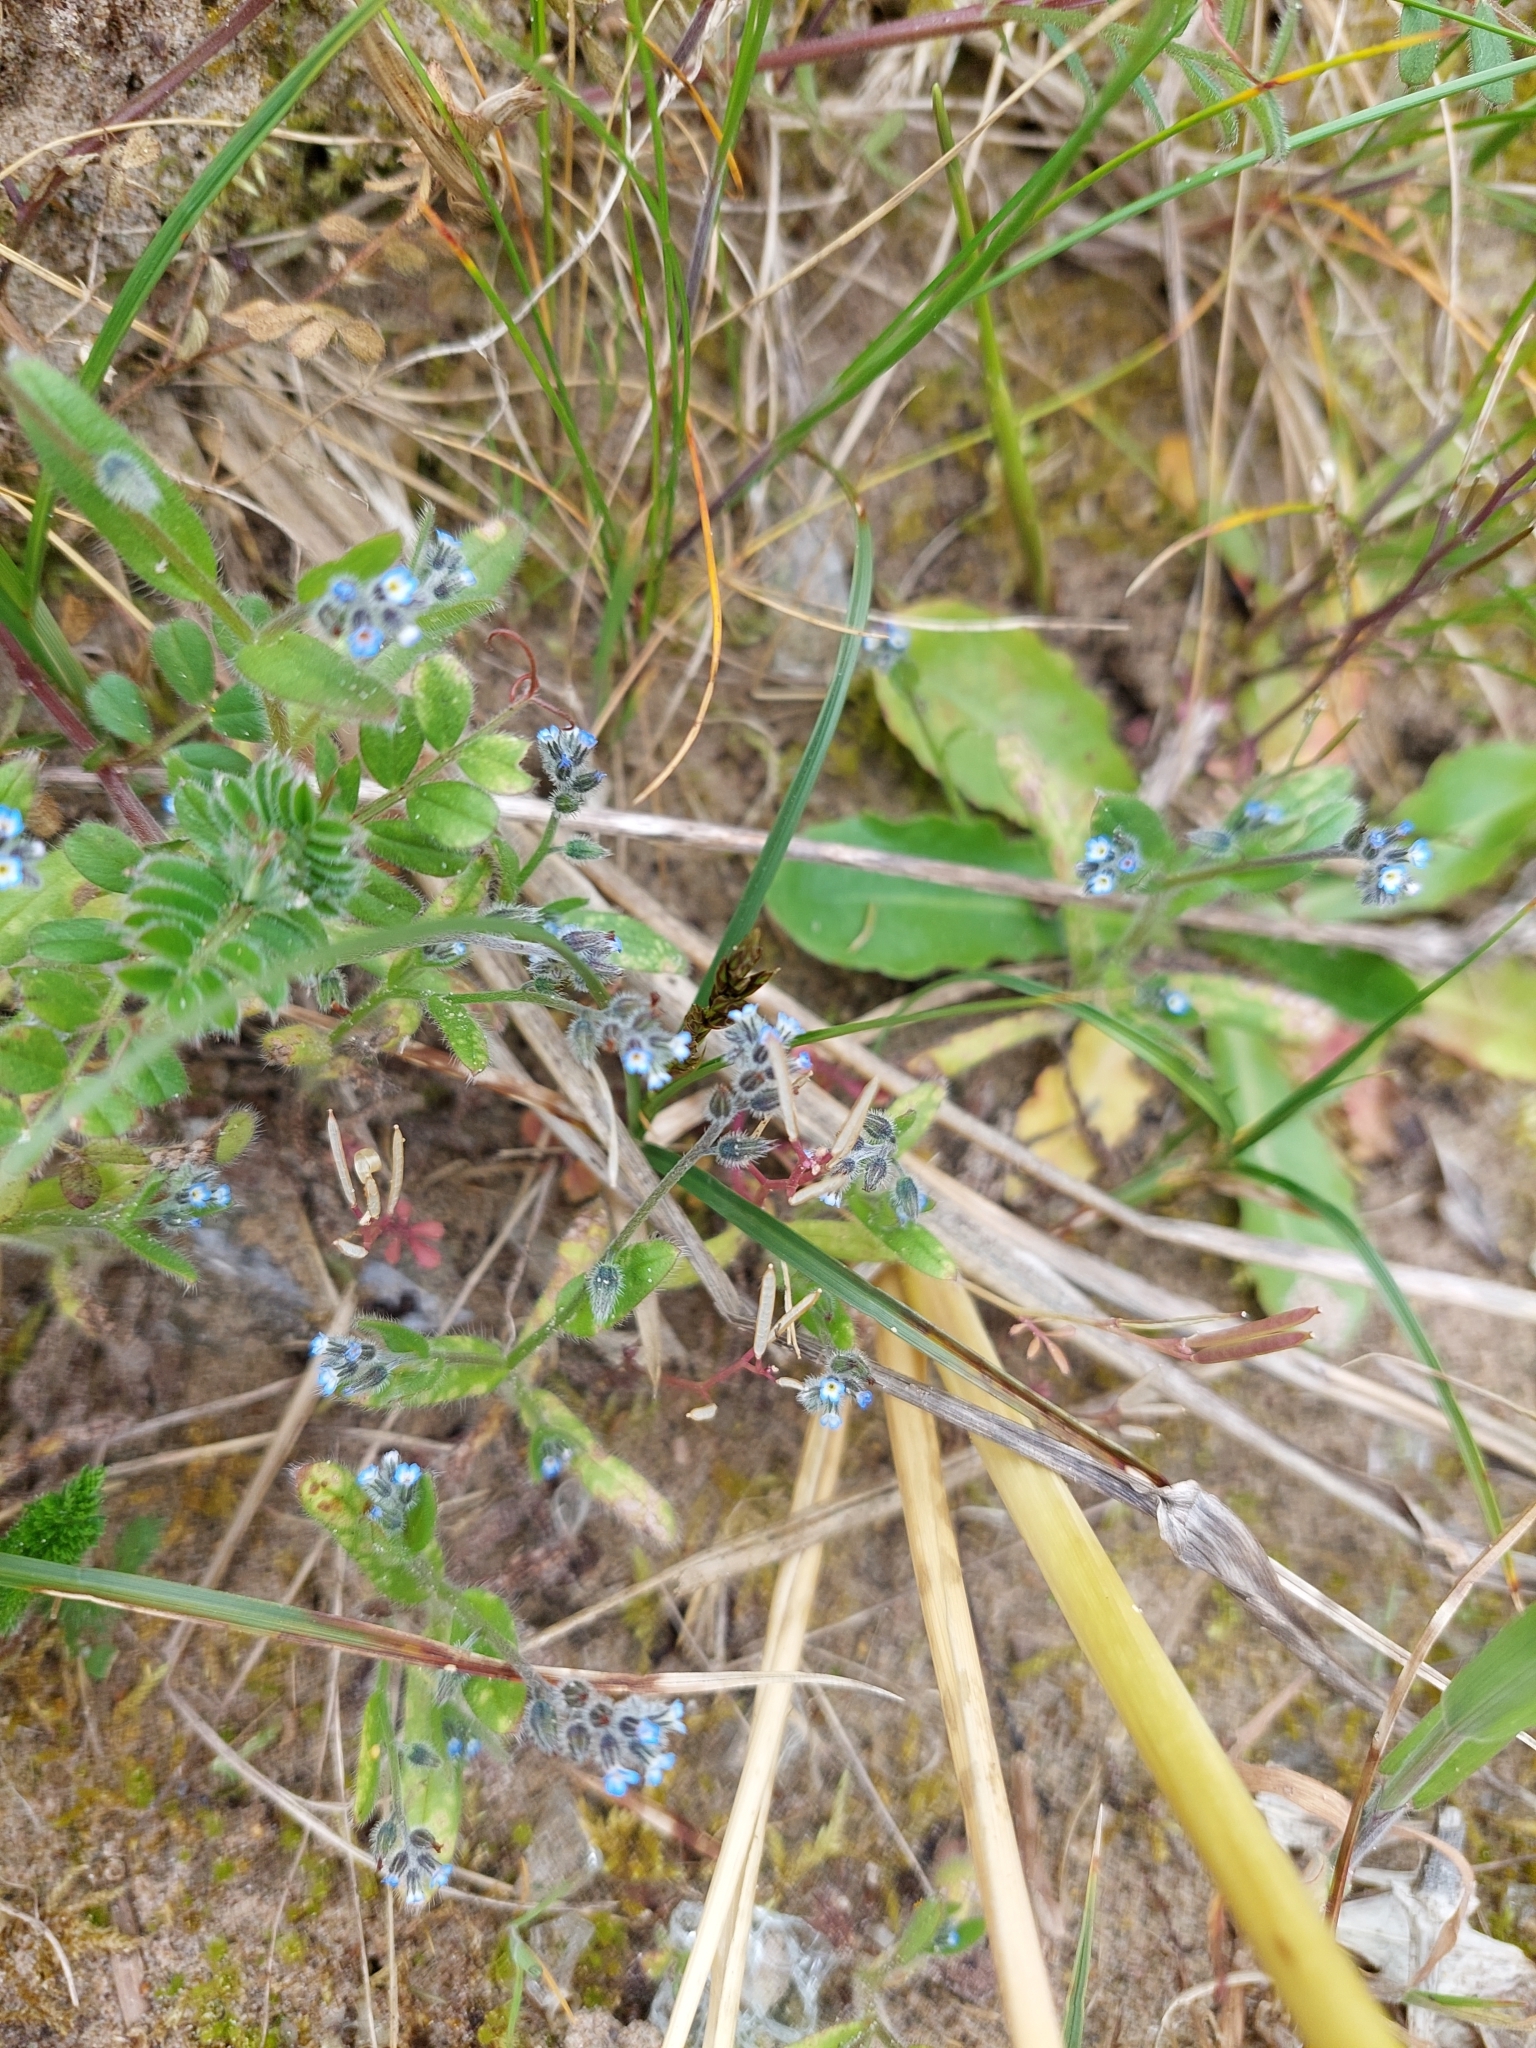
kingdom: Plantae
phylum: Tracheophyta
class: Magnoliopsida
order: Boraginales
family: Boraginaceae
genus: Myosotis
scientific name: Myosotis ramosissima
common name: Early forget-me-not
